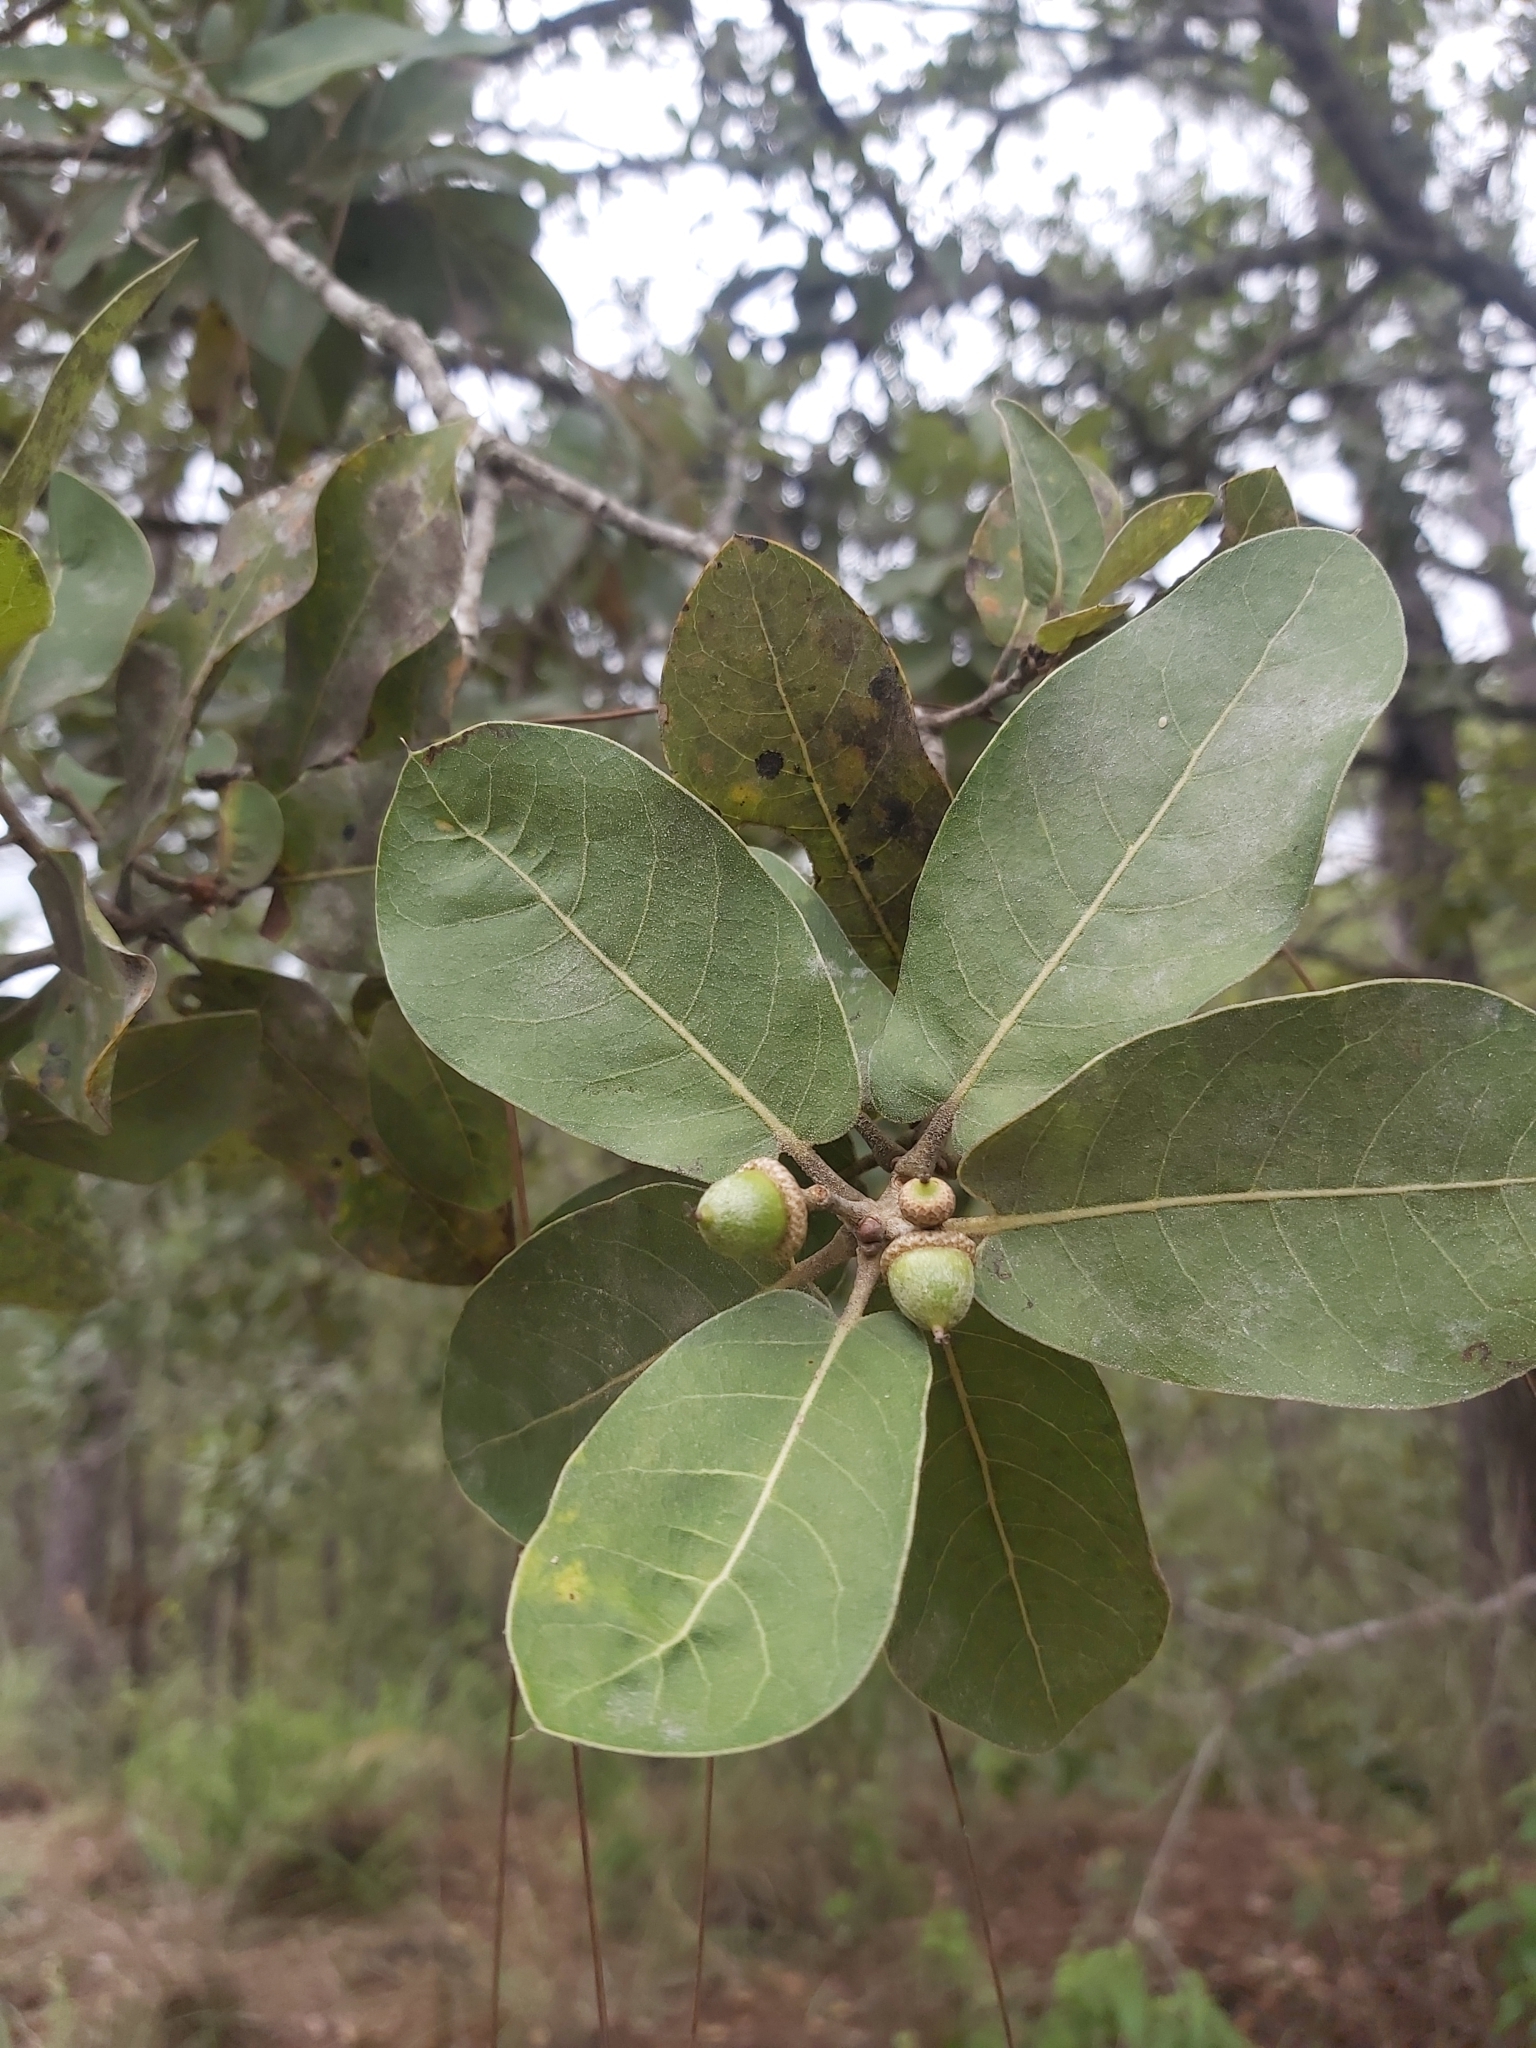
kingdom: Plantae
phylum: Tracheophyta
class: Magnoliopsida
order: Fagales
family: Fagaceae
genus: Quercus
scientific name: Quercus aristata
